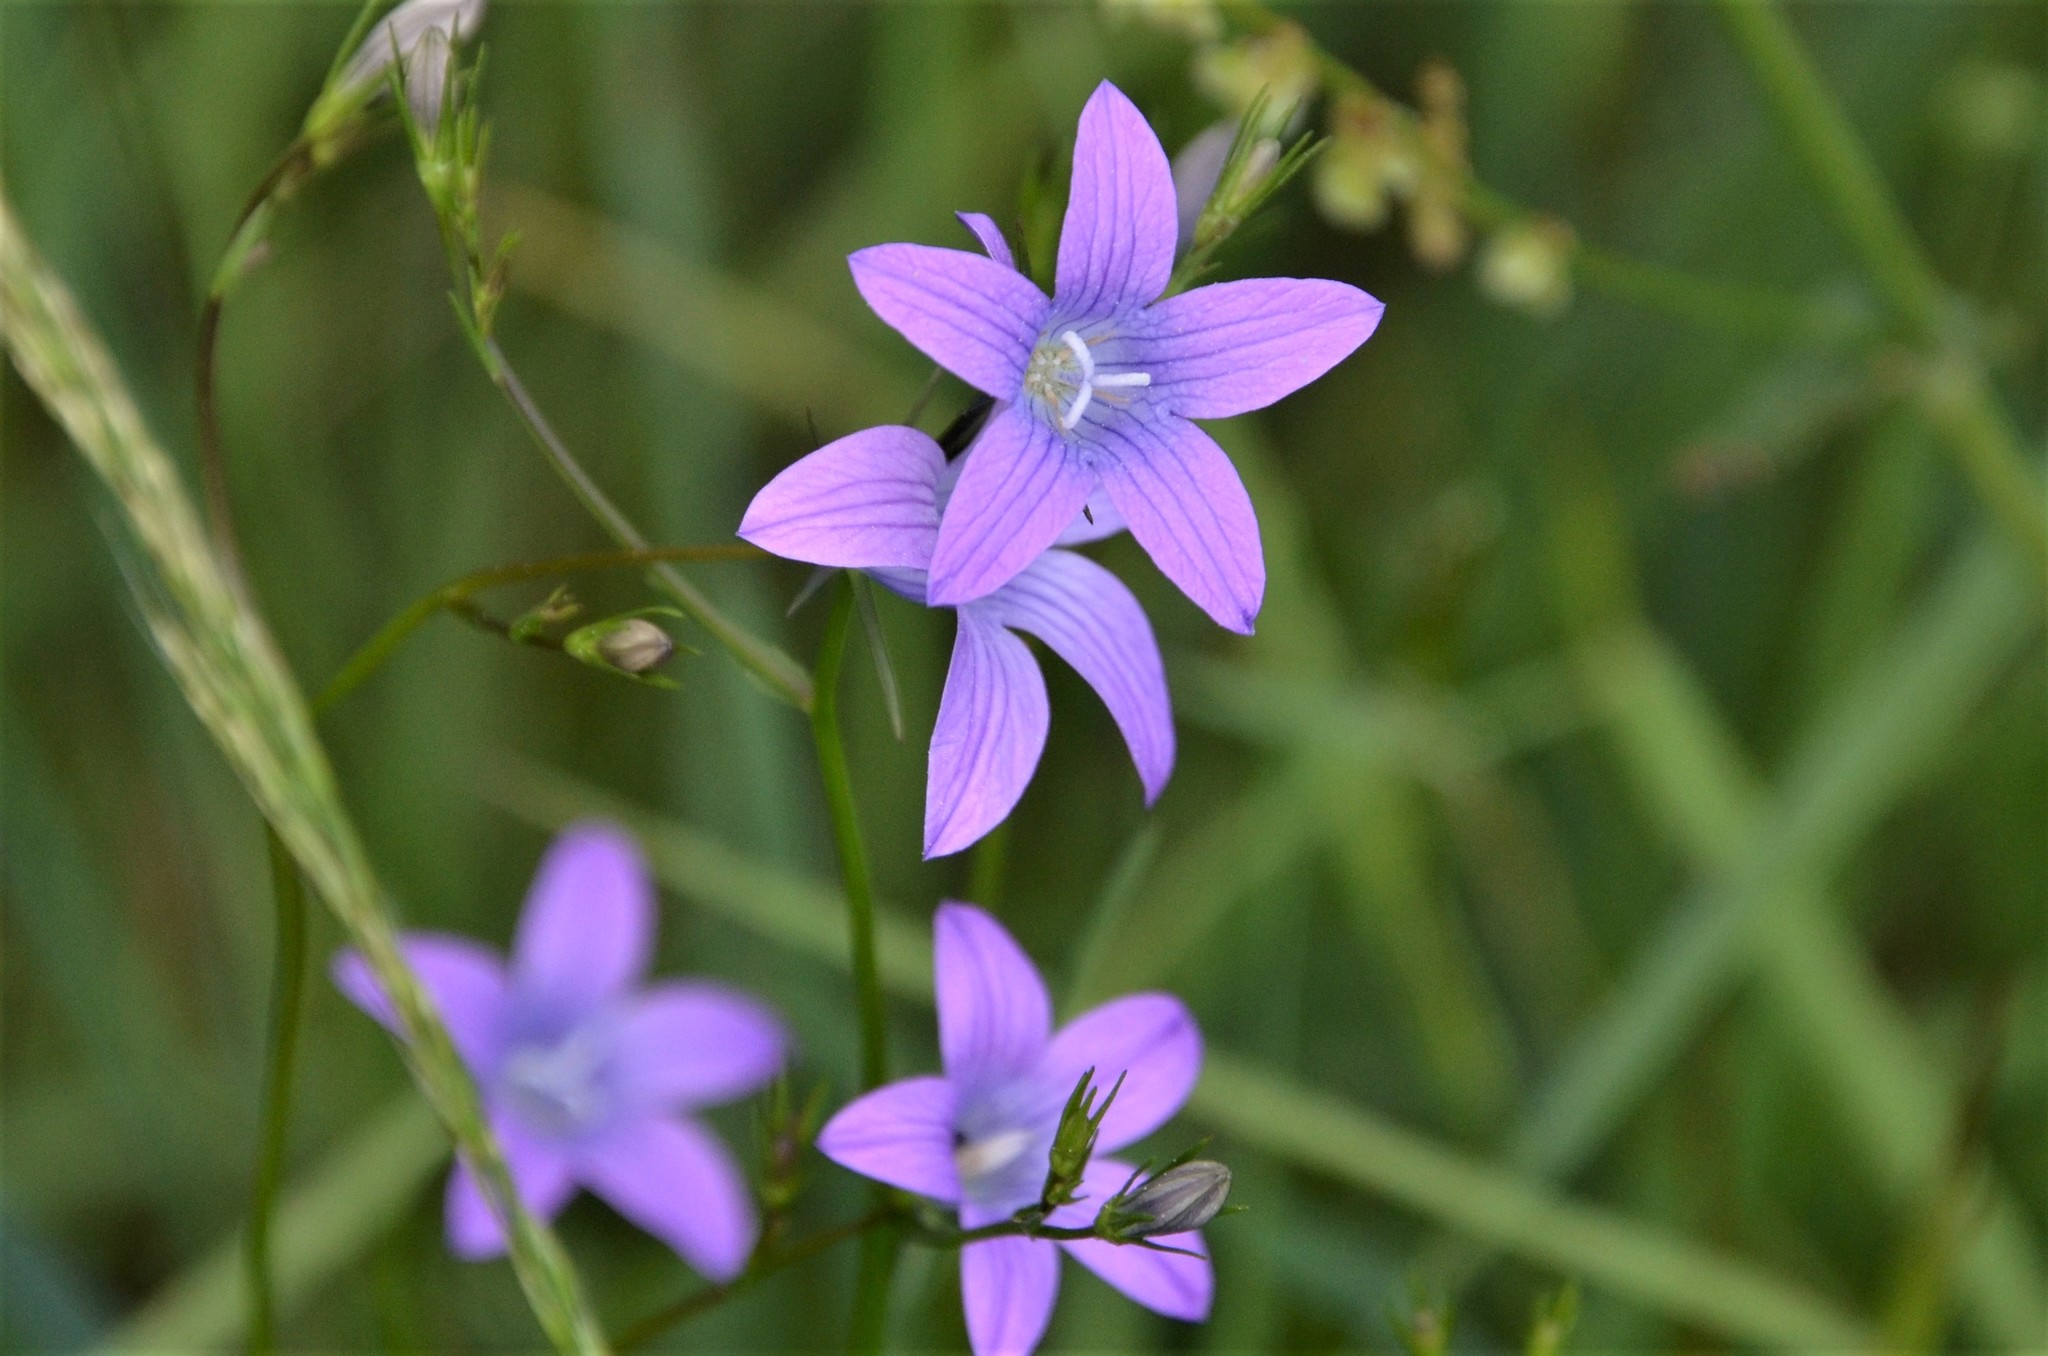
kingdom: Plantae
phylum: Tracheophyta
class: Magnoliopsida
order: Asterales
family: Campanulaceae
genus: Campanula
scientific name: Campanula patula
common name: Spreading bellflower
